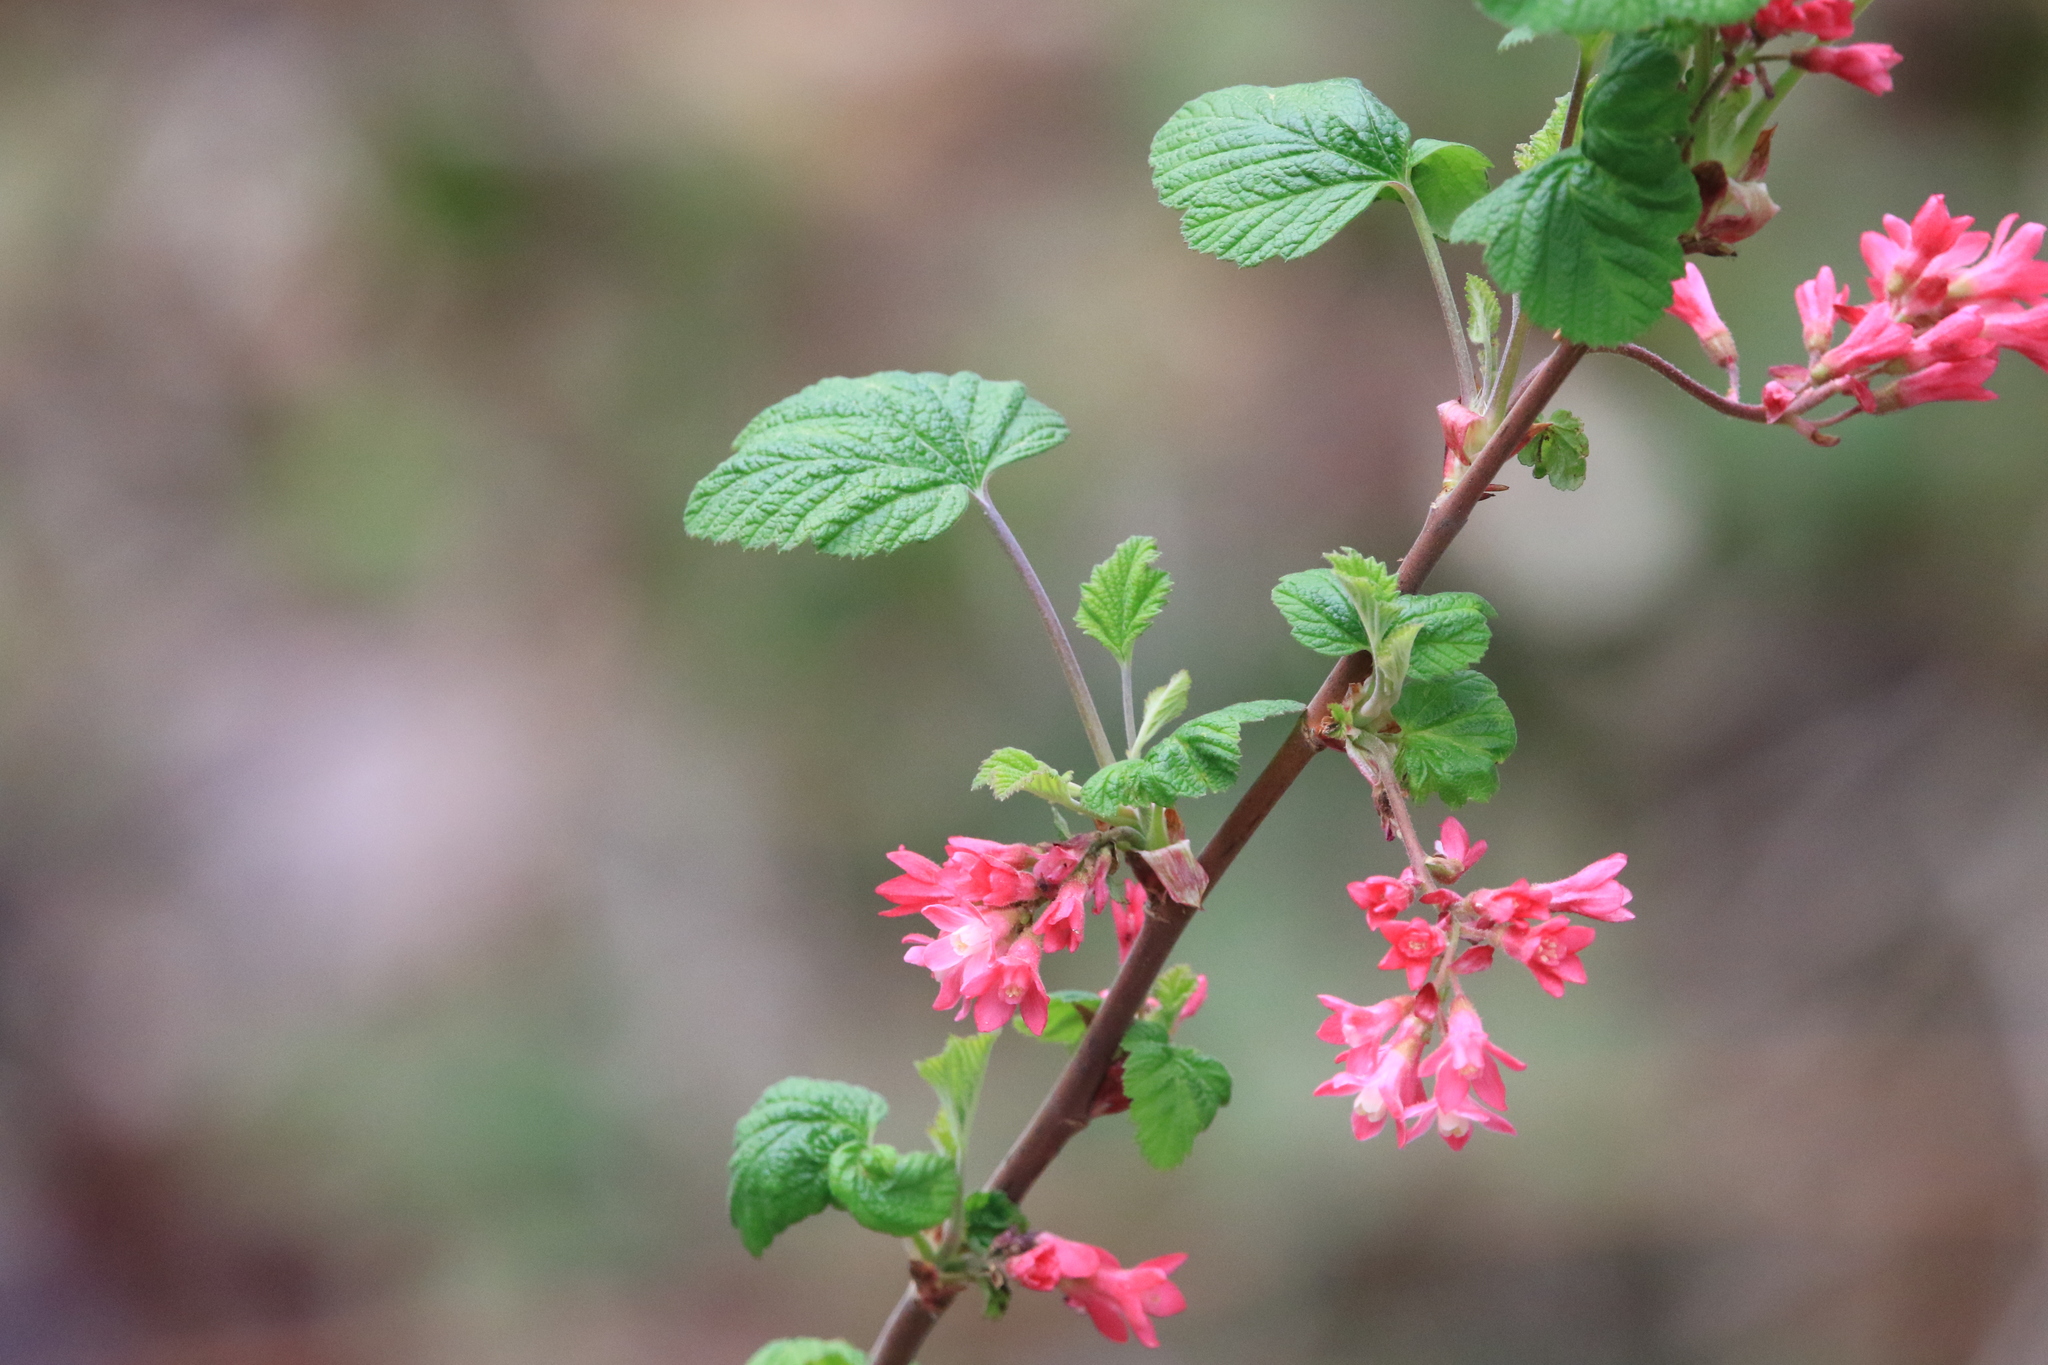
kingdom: Plantae
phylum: Tracheophyta
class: Magnoliopsida
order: Saxifragales
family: Grossulariaceae
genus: Ribes
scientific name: Ribes sanguineum
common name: Flowering currant
